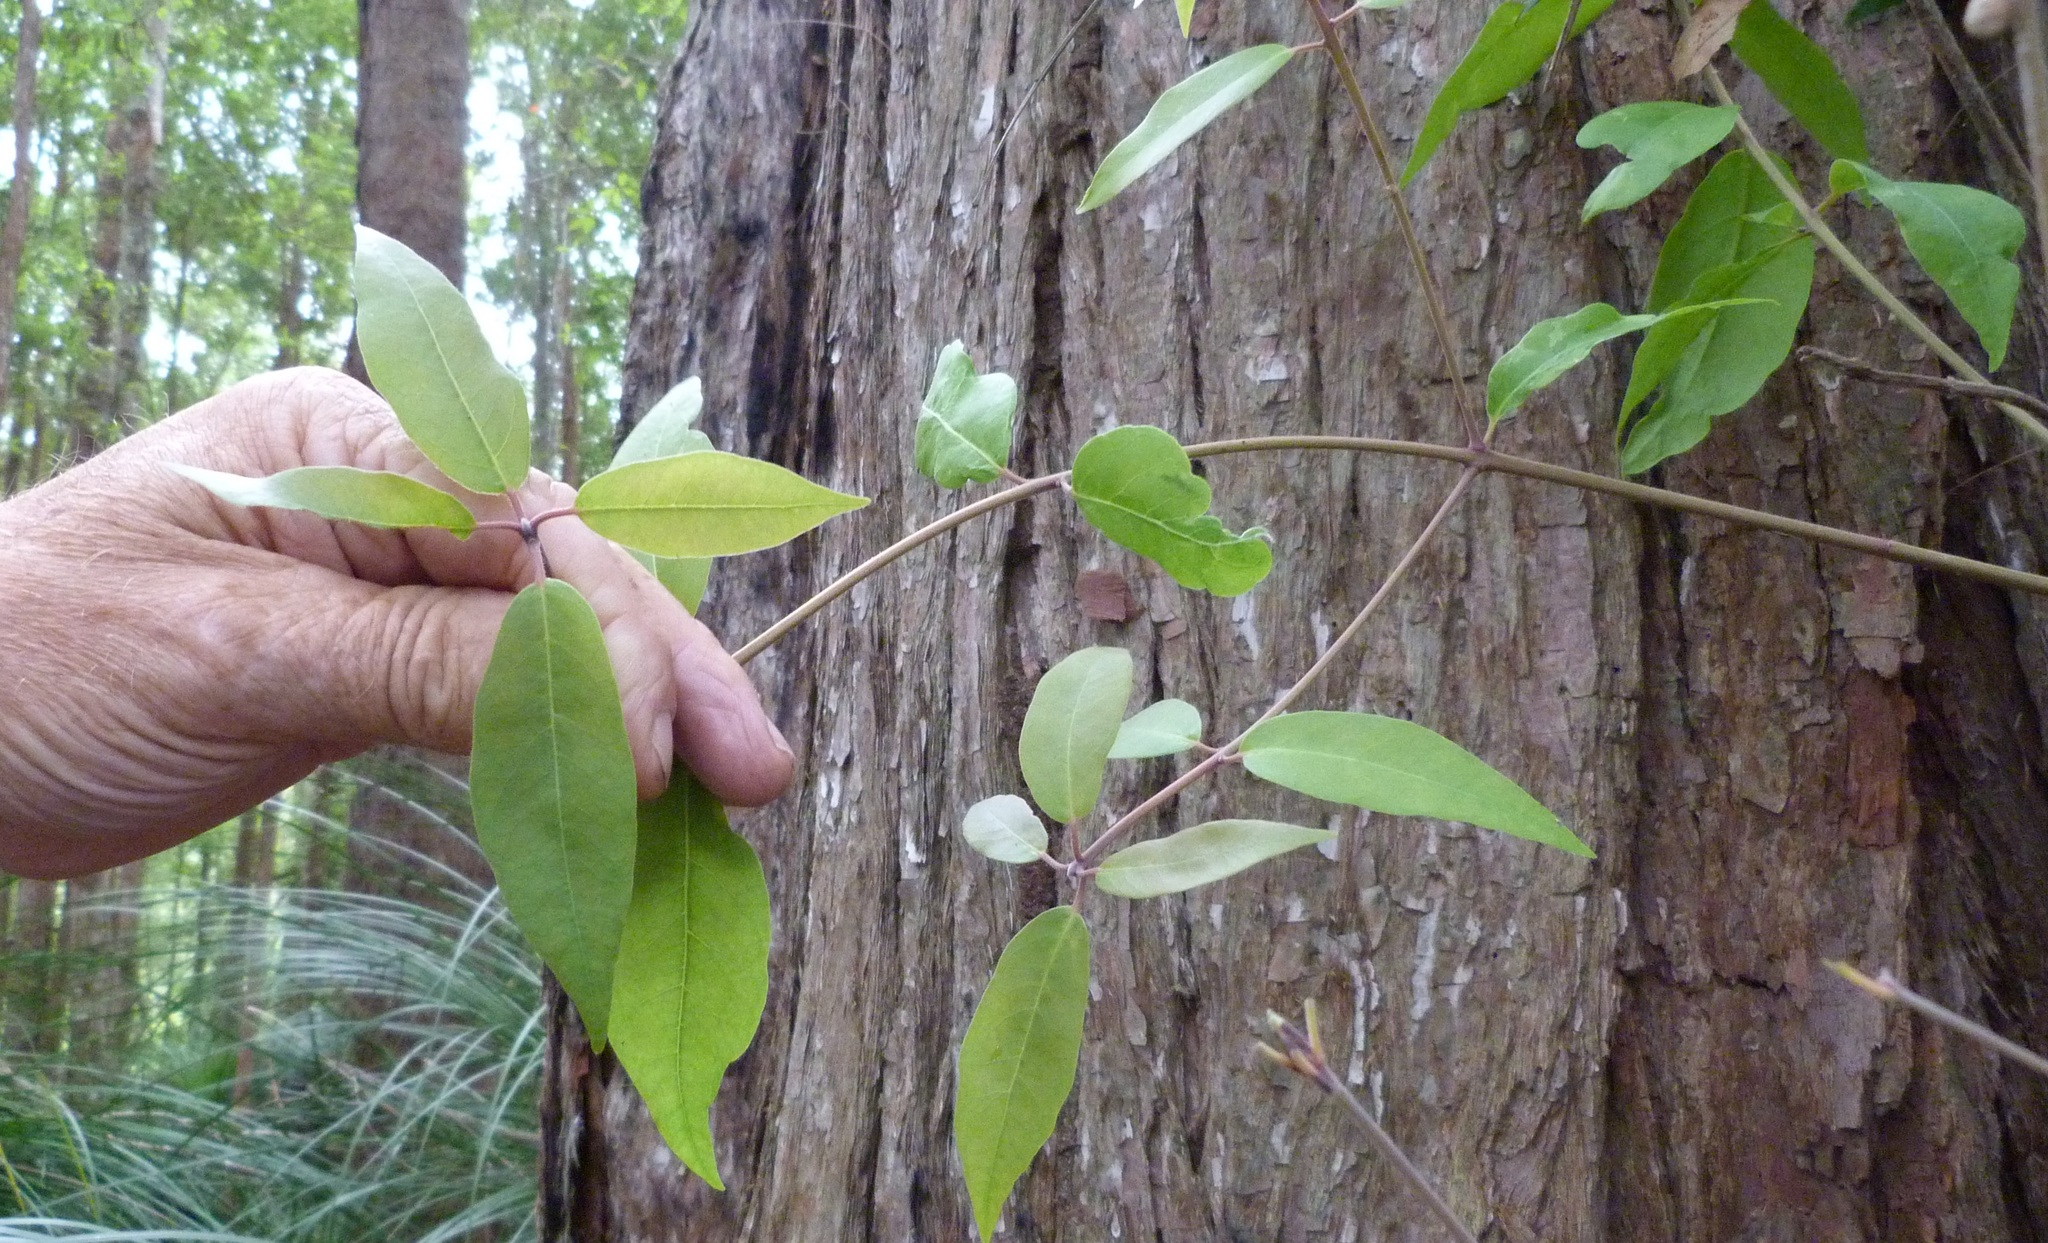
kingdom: Plantae
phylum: Tracheophyta
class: Magnoliopsida
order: Myrtales
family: Myrtaceae
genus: Syncarpia
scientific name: Syncarpia glomulifera
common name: Turpentine tree
